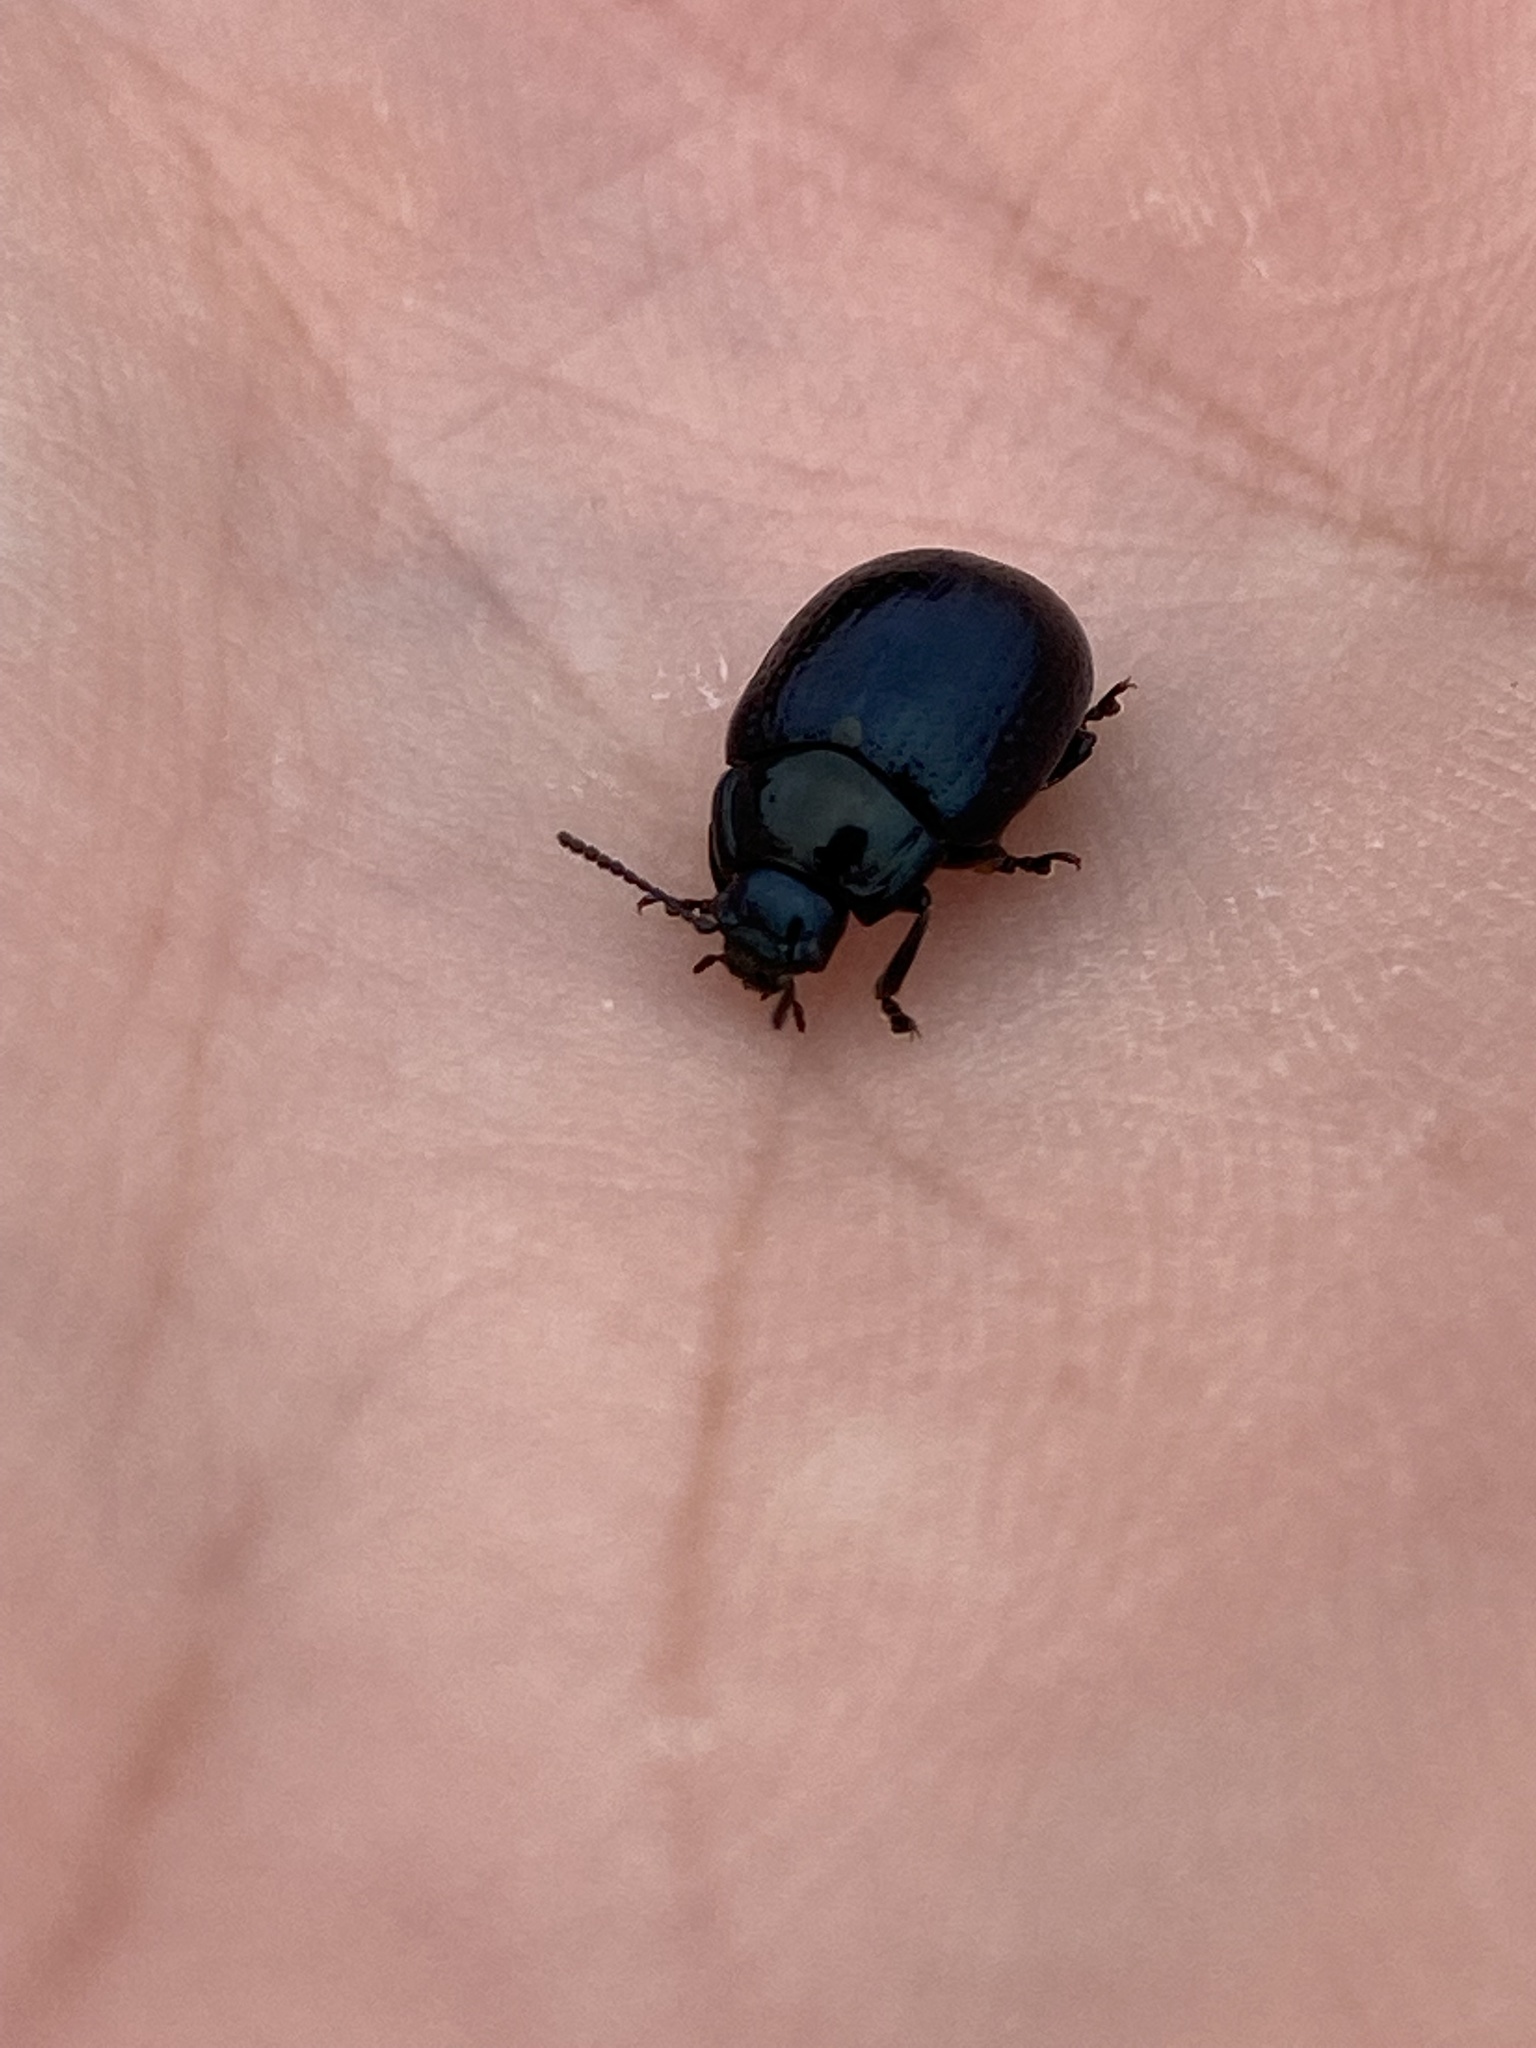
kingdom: Animalia
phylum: Arthropoda
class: Insecta
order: Coleoptera
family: Chrysomelidae
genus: Chrysolina
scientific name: Chrysolina oricalcia
